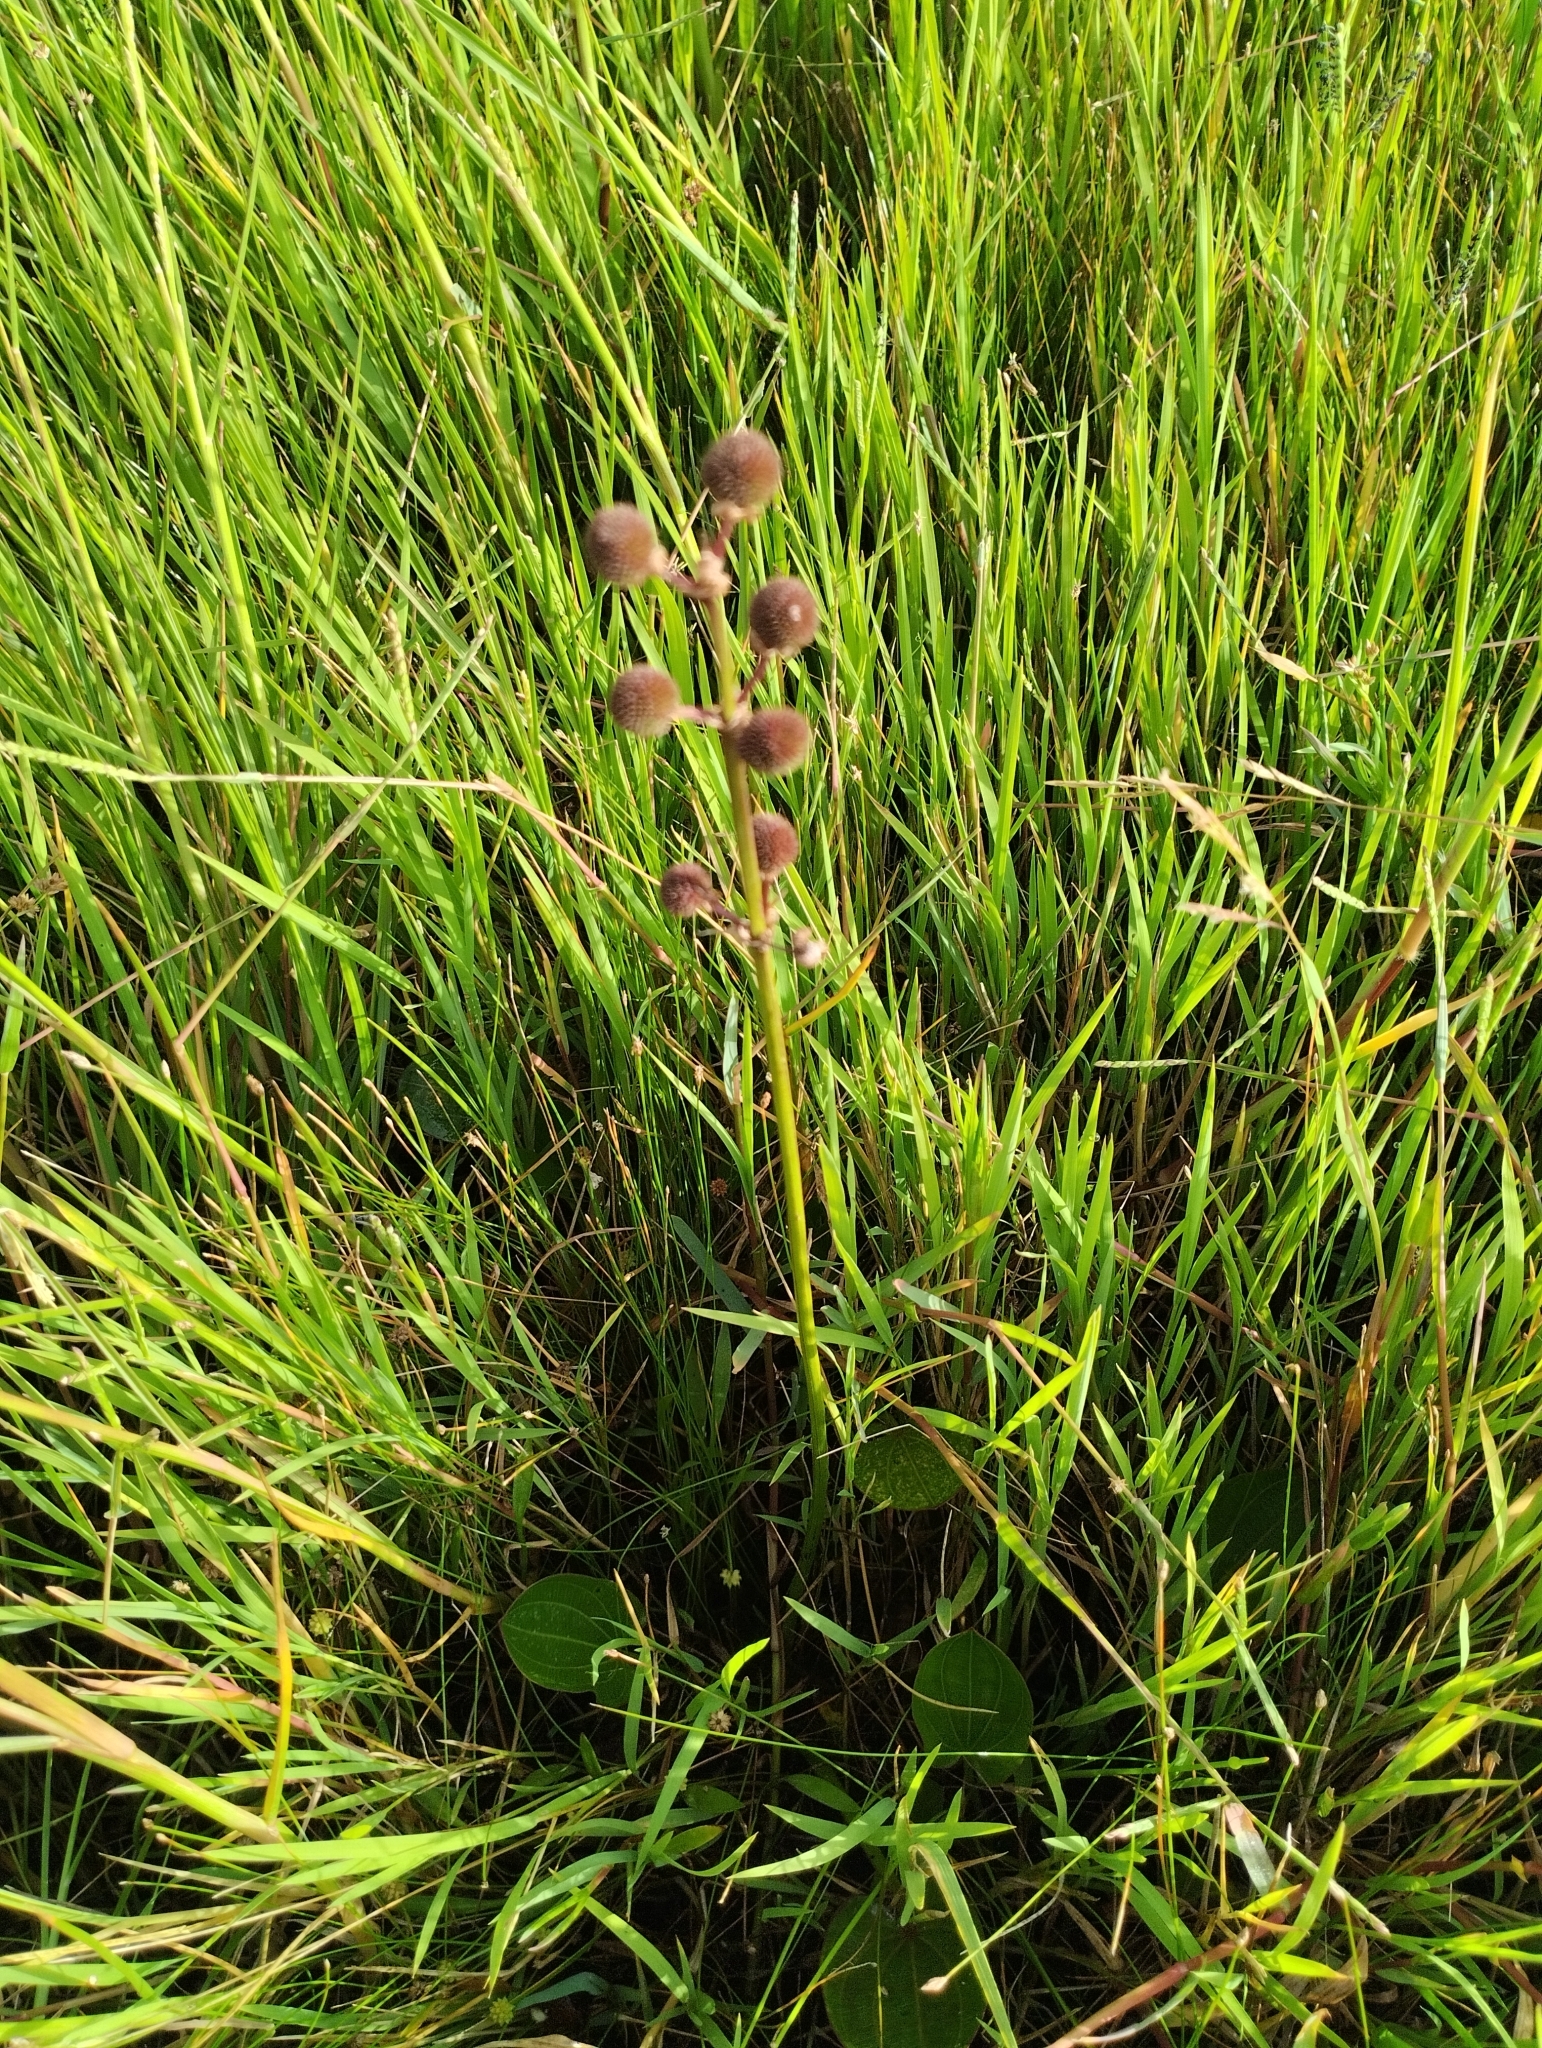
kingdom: Plantae
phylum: Tracheophyta
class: Liliopsida
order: Alismatales
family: Alismataceae
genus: Aquarius
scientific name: Aquarius longiscapus
